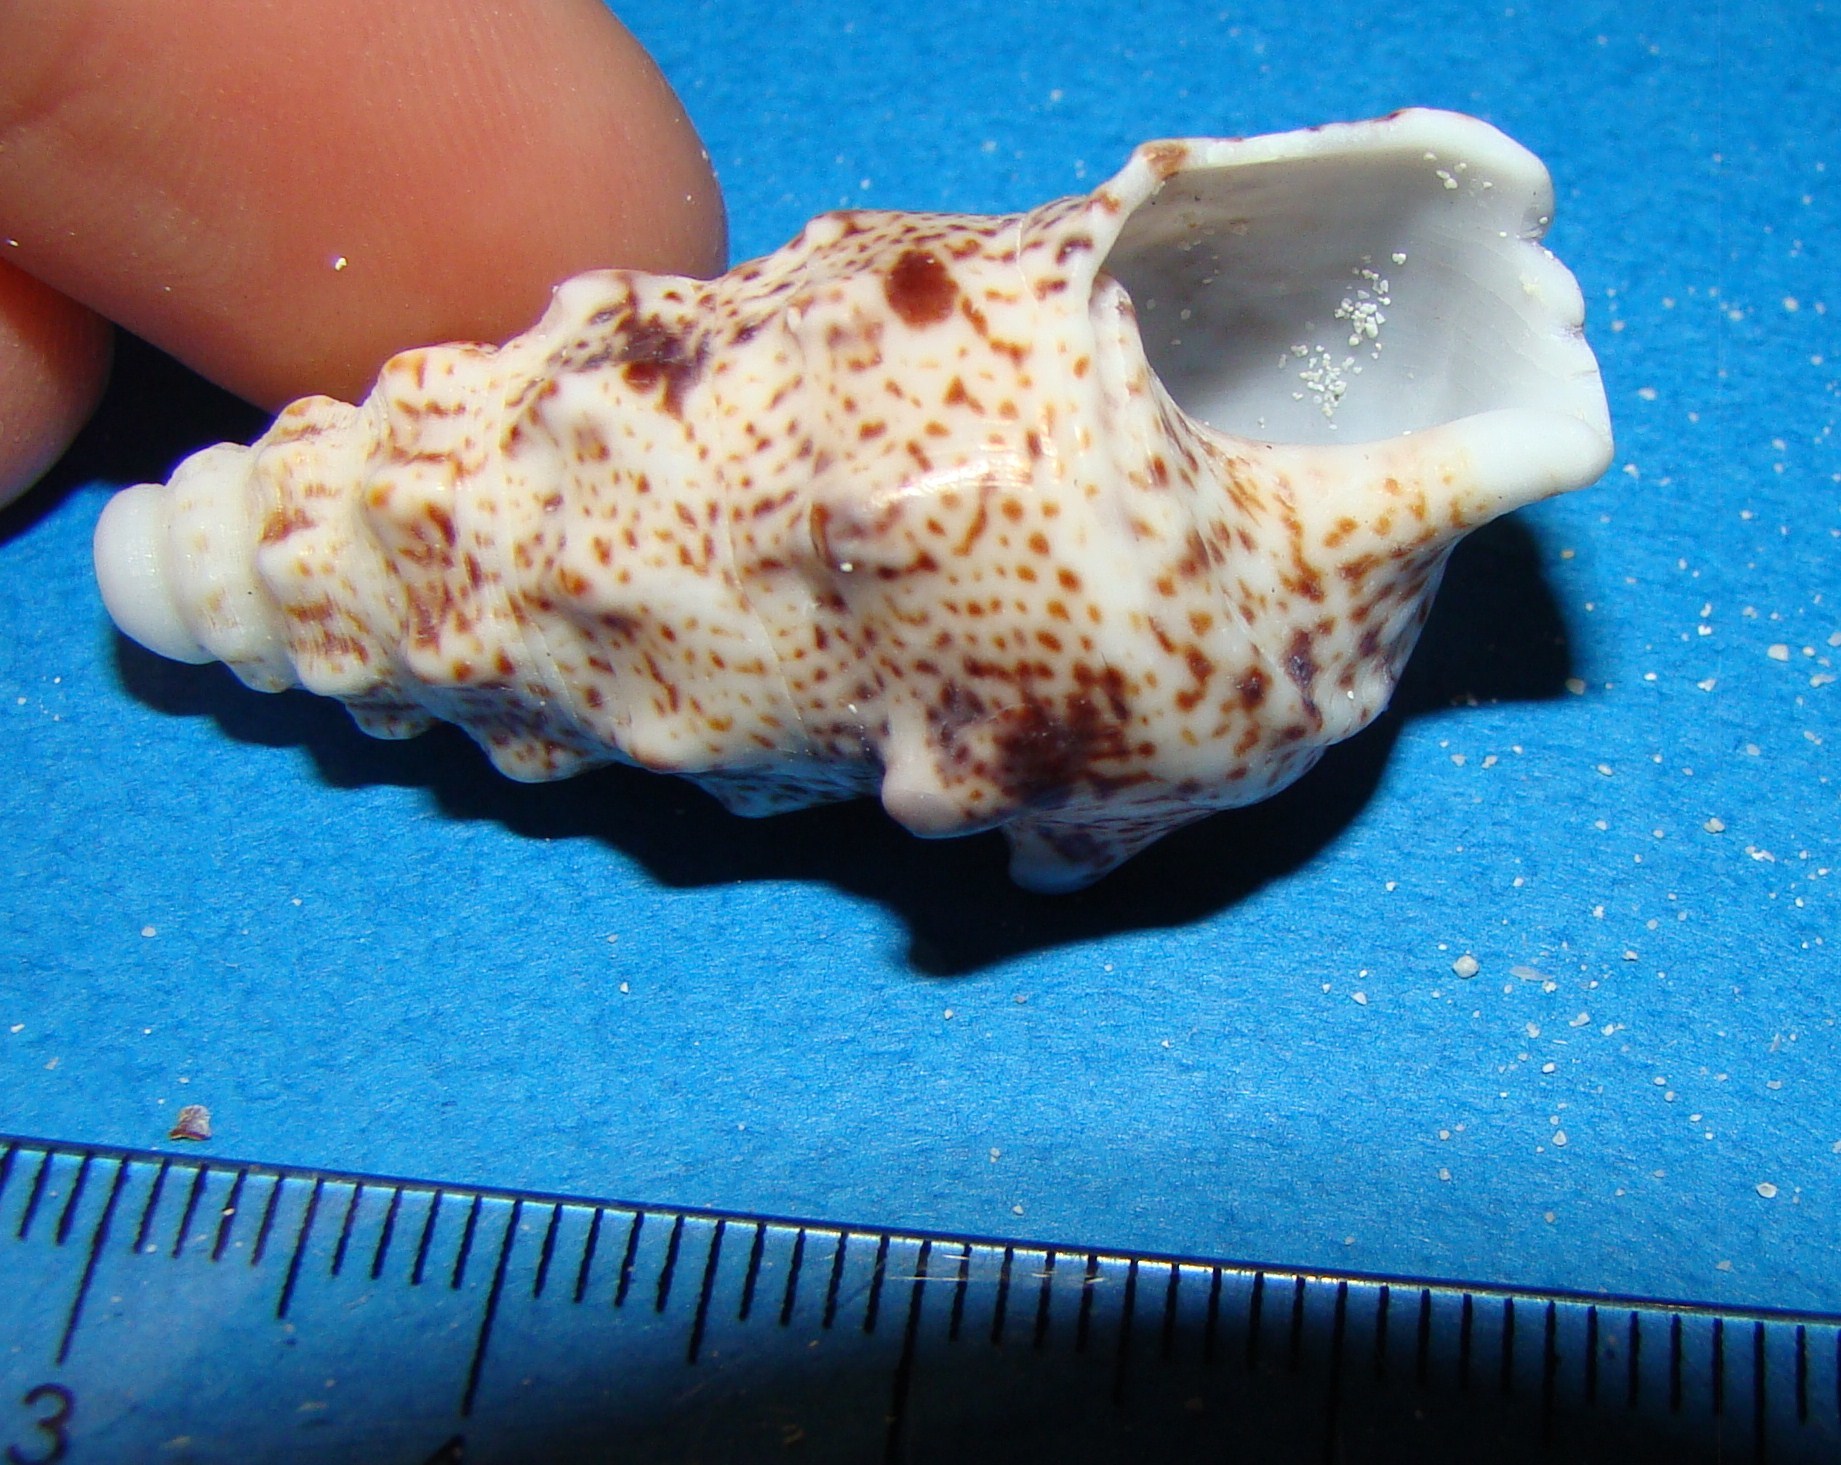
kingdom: Animalia
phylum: Mollusca
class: Gastropoda
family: Cerithiidae
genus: Pseudovertagus
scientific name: Pseudovertagus aluco
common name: Cuming's cerith
